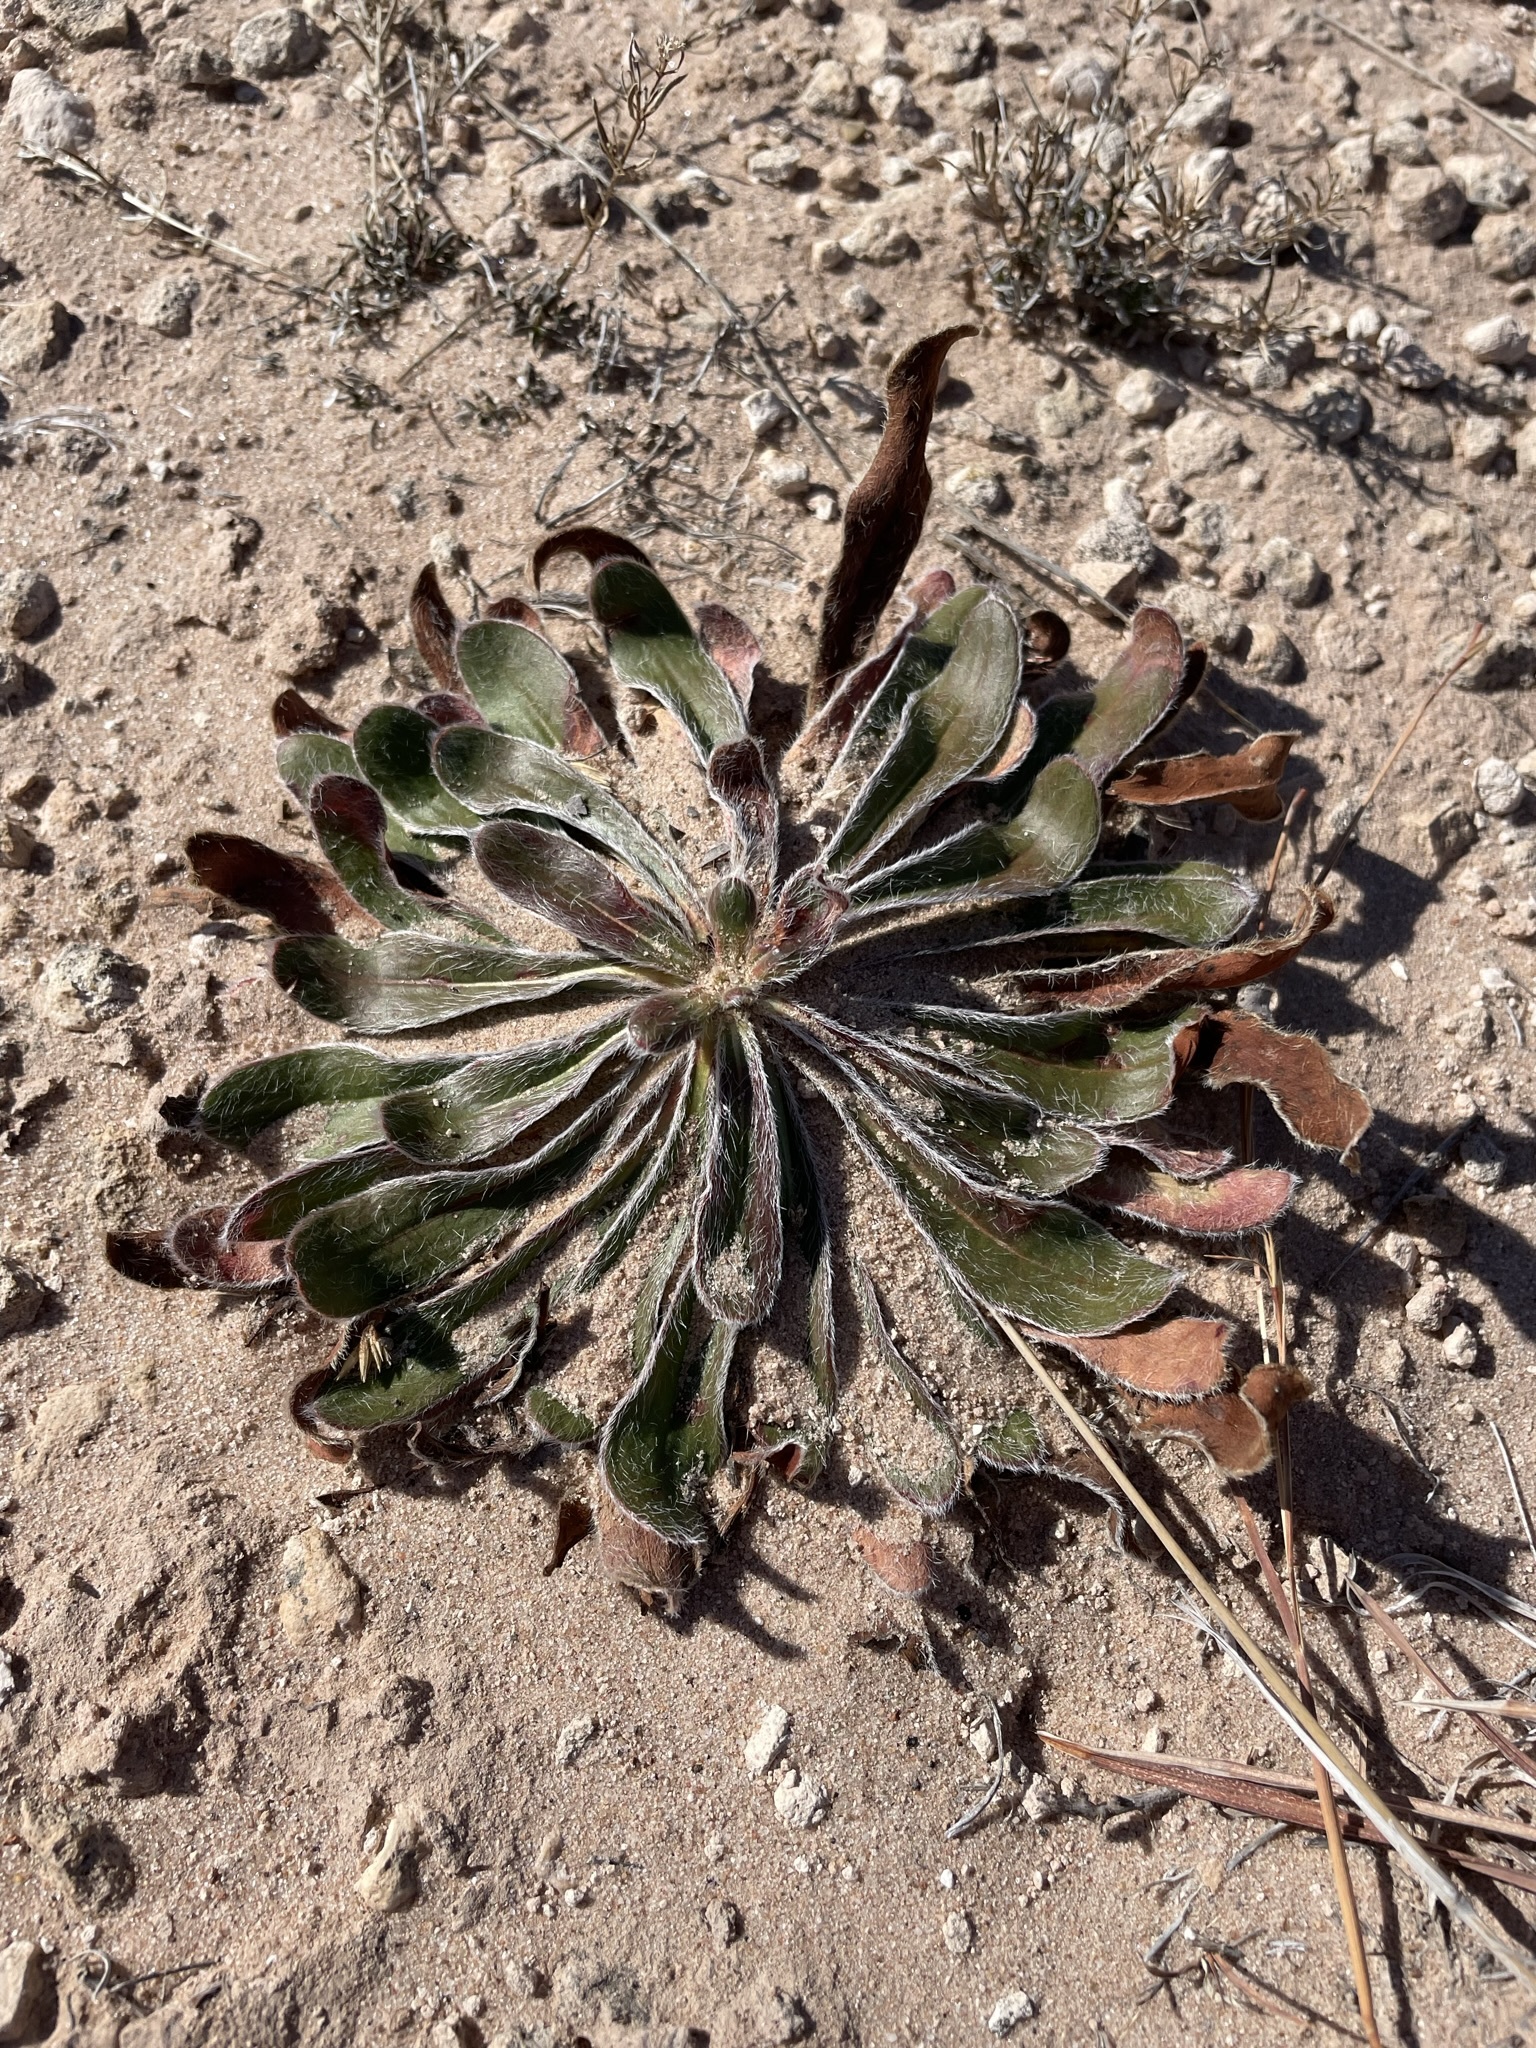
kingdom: Plantae
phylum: Tracheophyta
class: Magnoliopsida
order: Caryophyllales
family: Polygonaceae
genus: Eriogonum
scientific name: Eriogonum alatum
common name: Winged eriogonum
